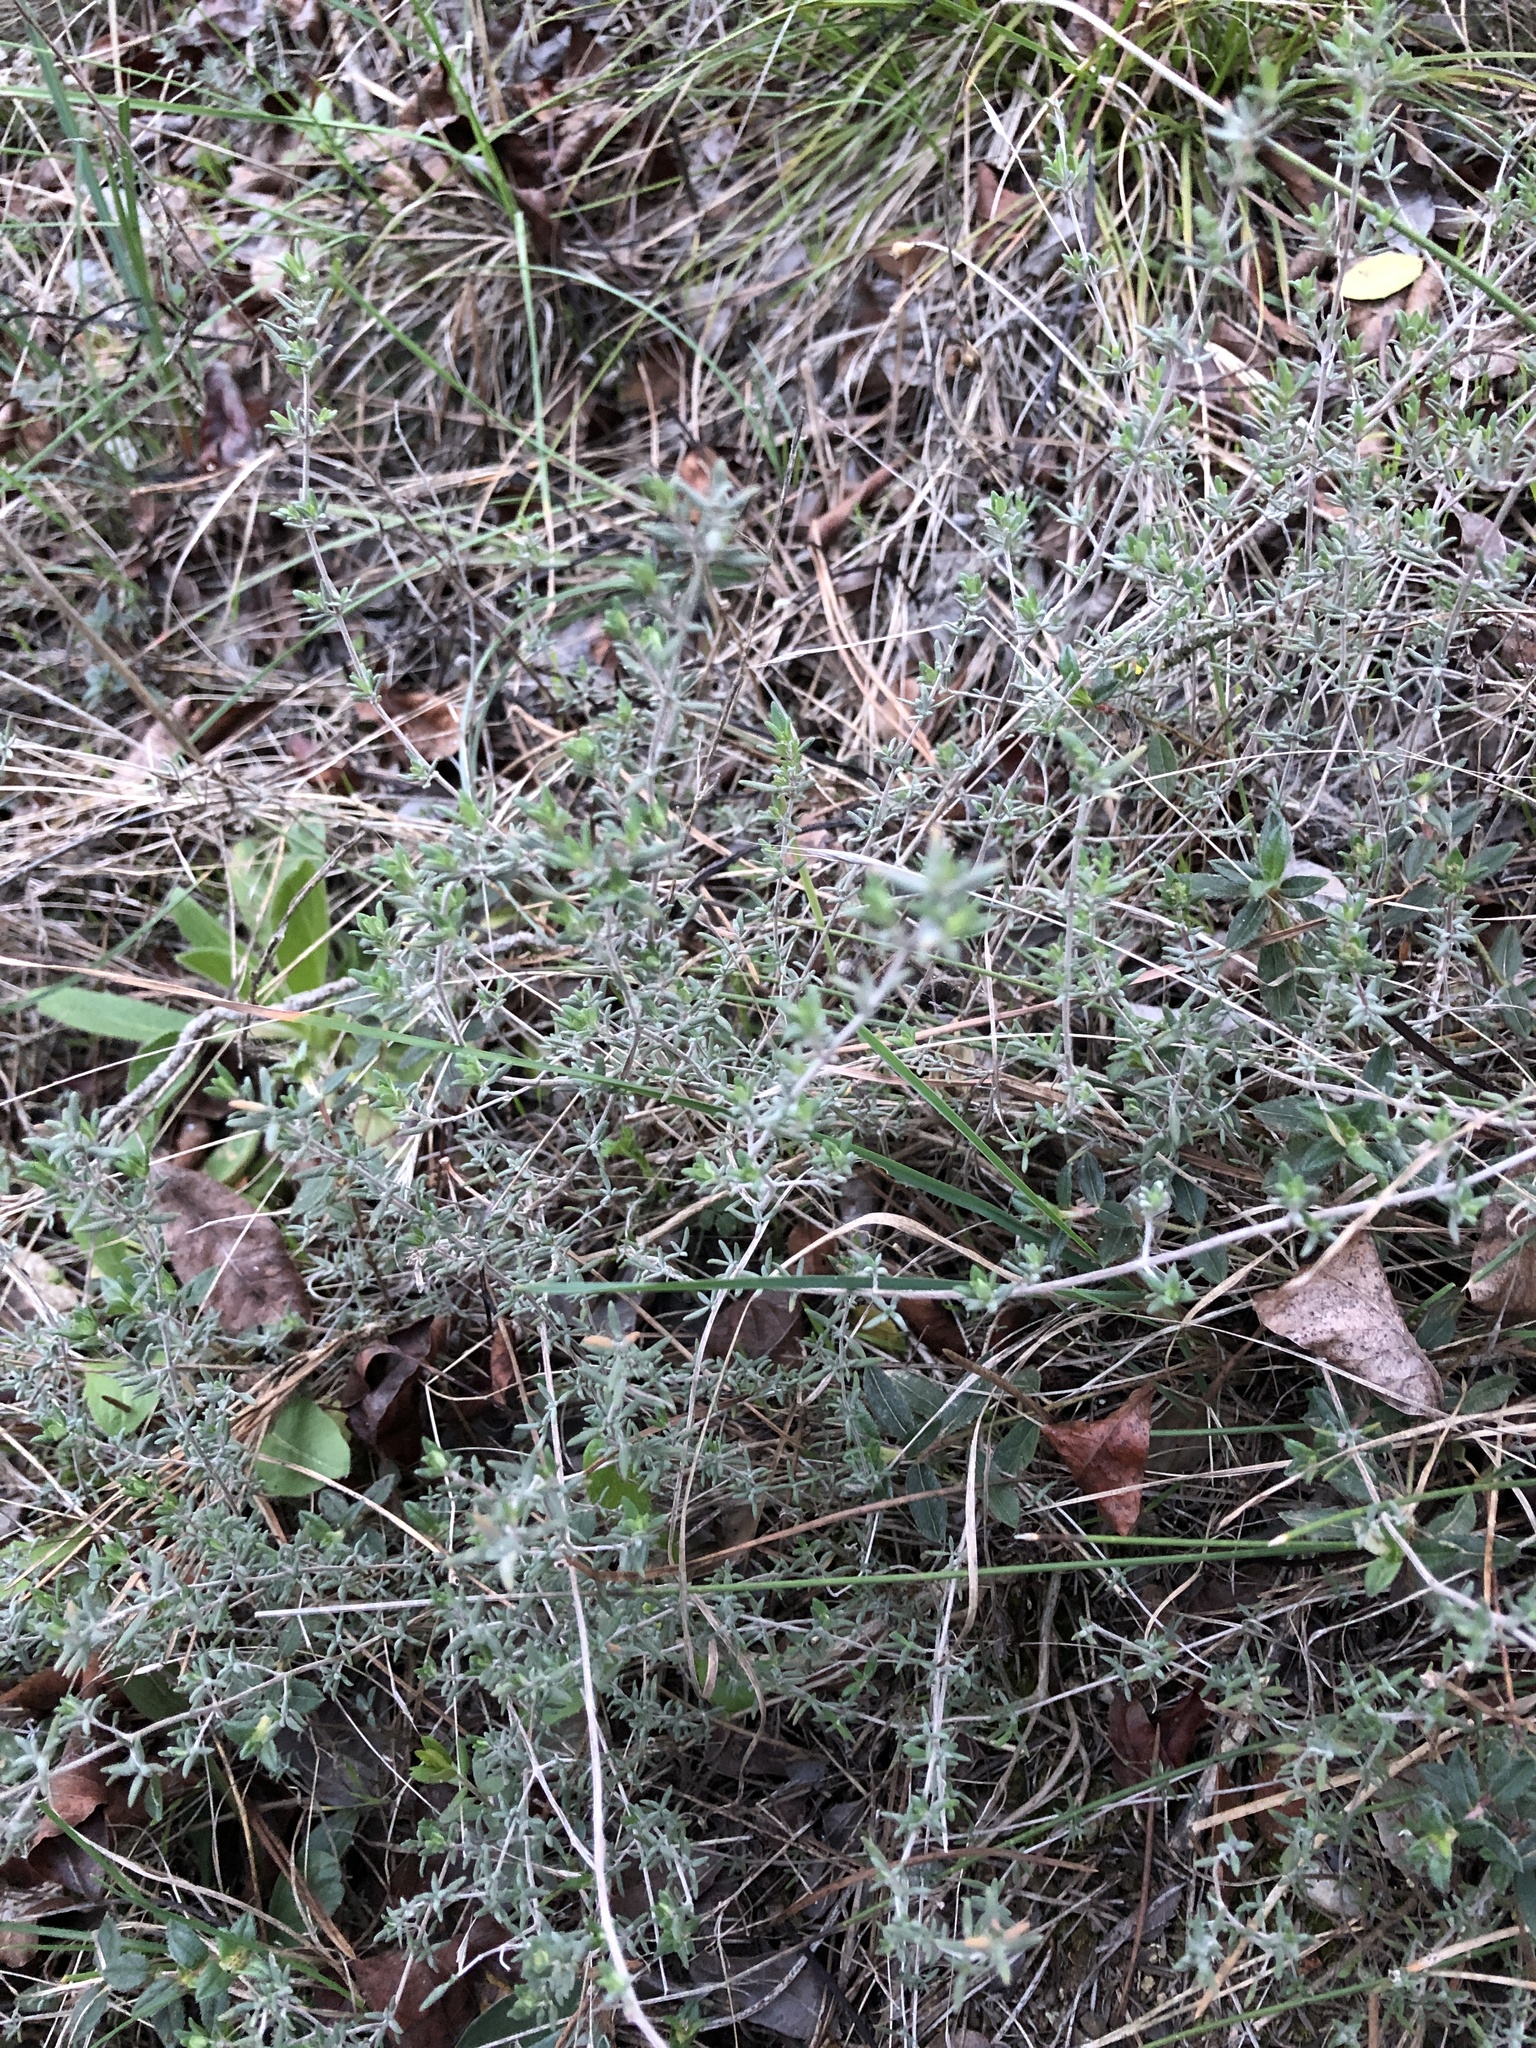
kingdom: Plantae
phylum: Tracheophyta
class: Magnoliopsida
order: Lamiales
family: Lamiaceae
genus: Thymus
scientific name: Thymus vulgaris
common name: Garden thyme
